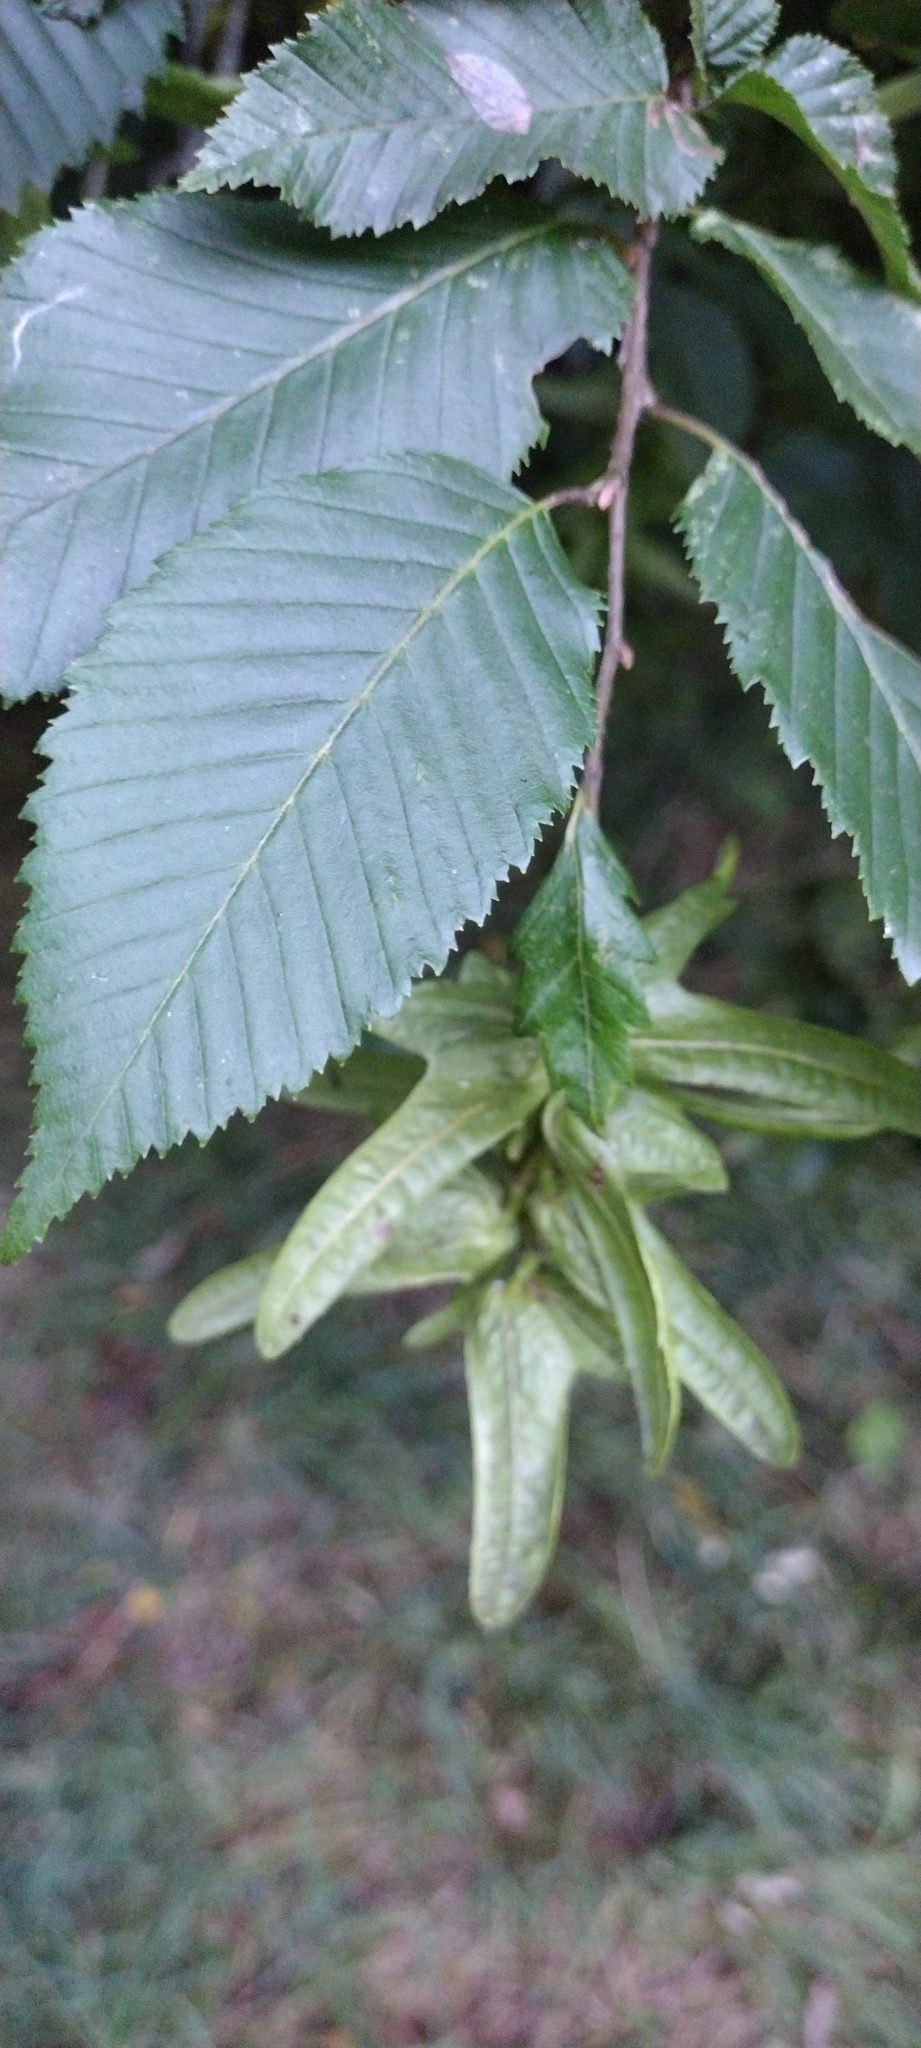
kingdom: Plantae
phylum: Tracheophyta
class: Magnoliopsida
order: Fagales
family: Betulaceae
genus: Carpinus
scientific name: Carpinus betulus
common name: Hornbeam
